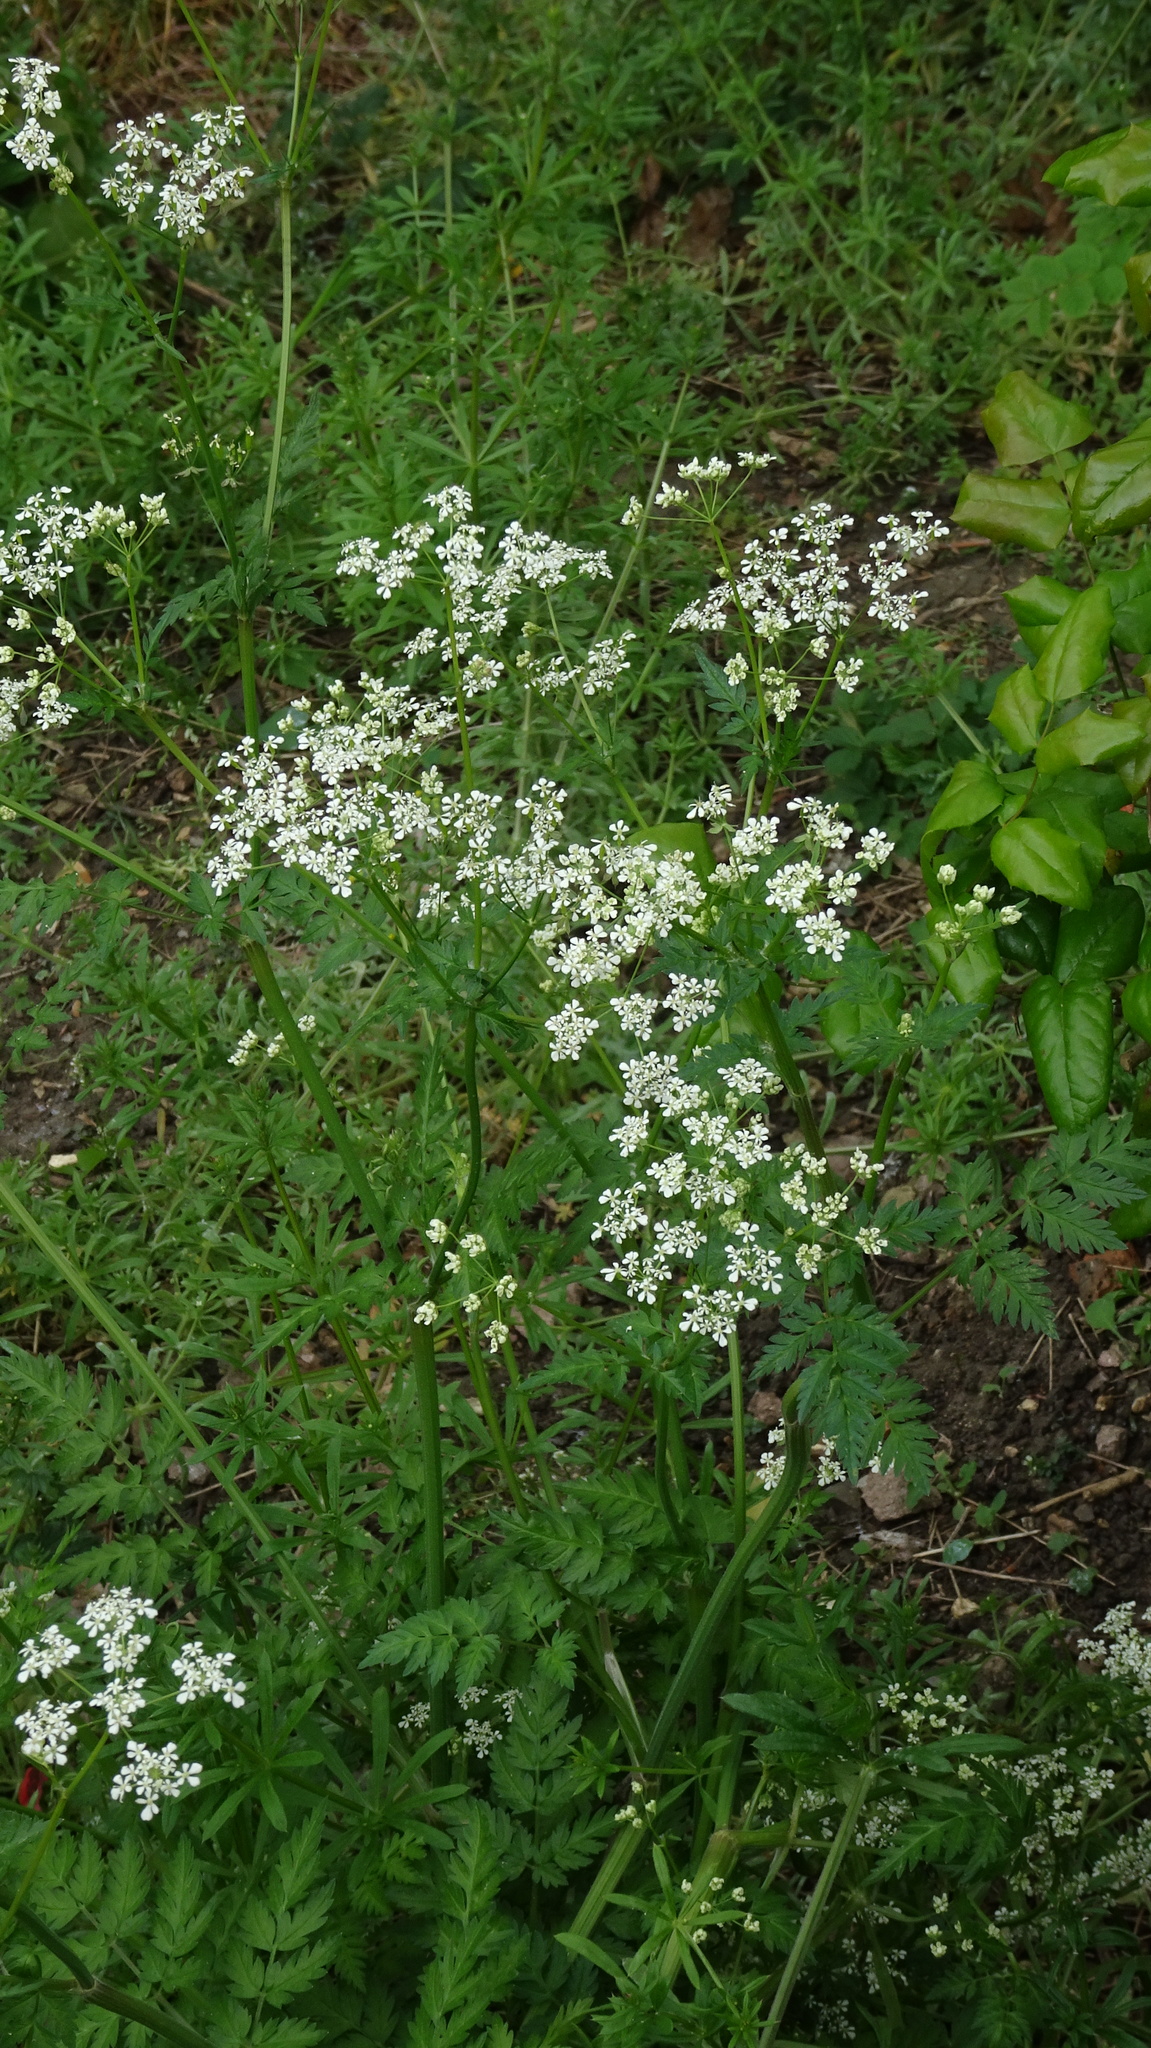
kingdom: Plantae
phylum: Tracheophyta
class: Magnoliopsida
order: Apiales
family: Apiaceae
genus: Anthriscus
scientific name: Anthriscus sylvestris
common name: Cow parsley
